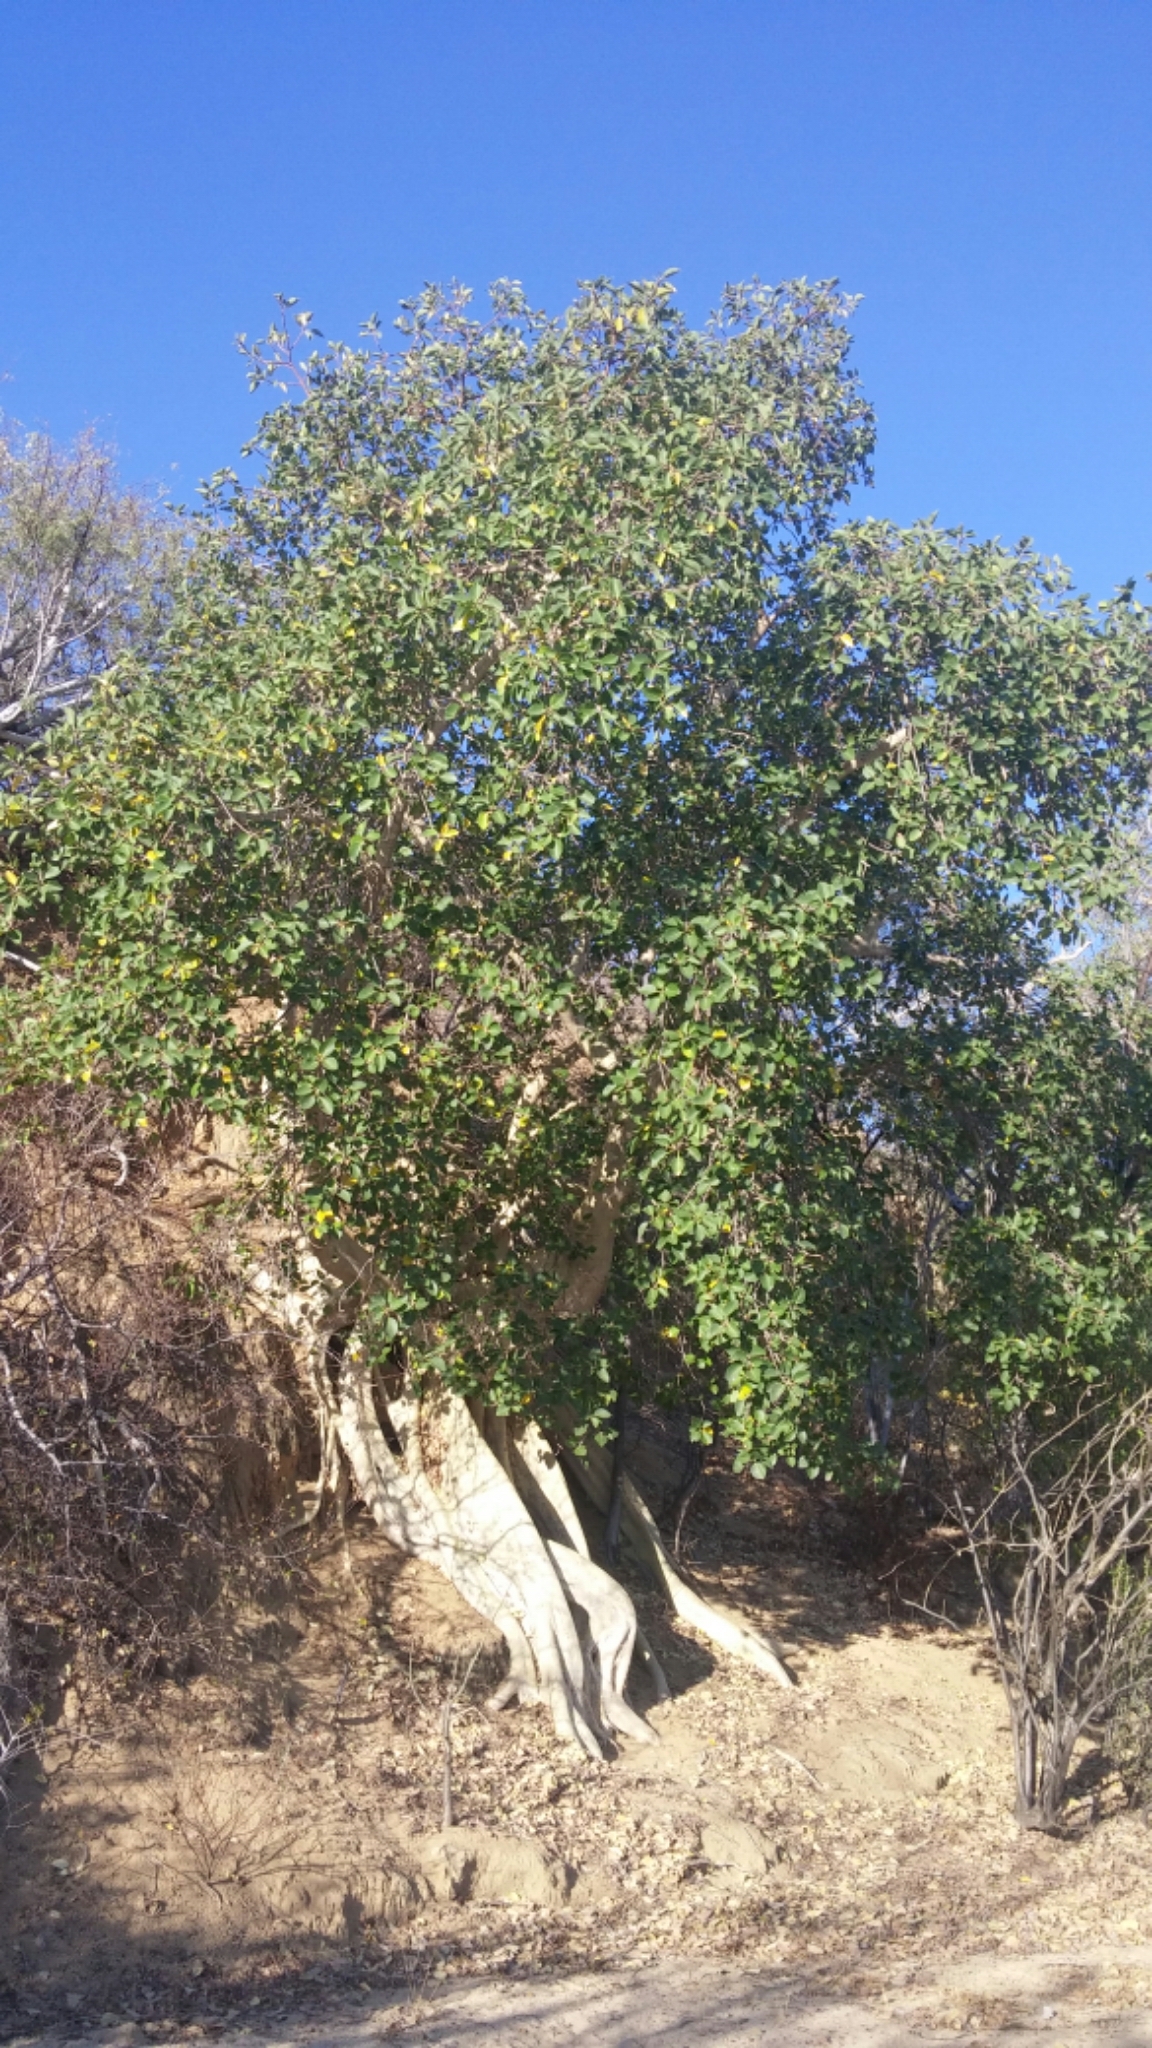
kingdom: Plantae
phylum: Tracheophyta
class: Magnoliopsida
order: Rosales
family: Moraceae
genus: Ficus
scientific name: Ficus petiolaris
